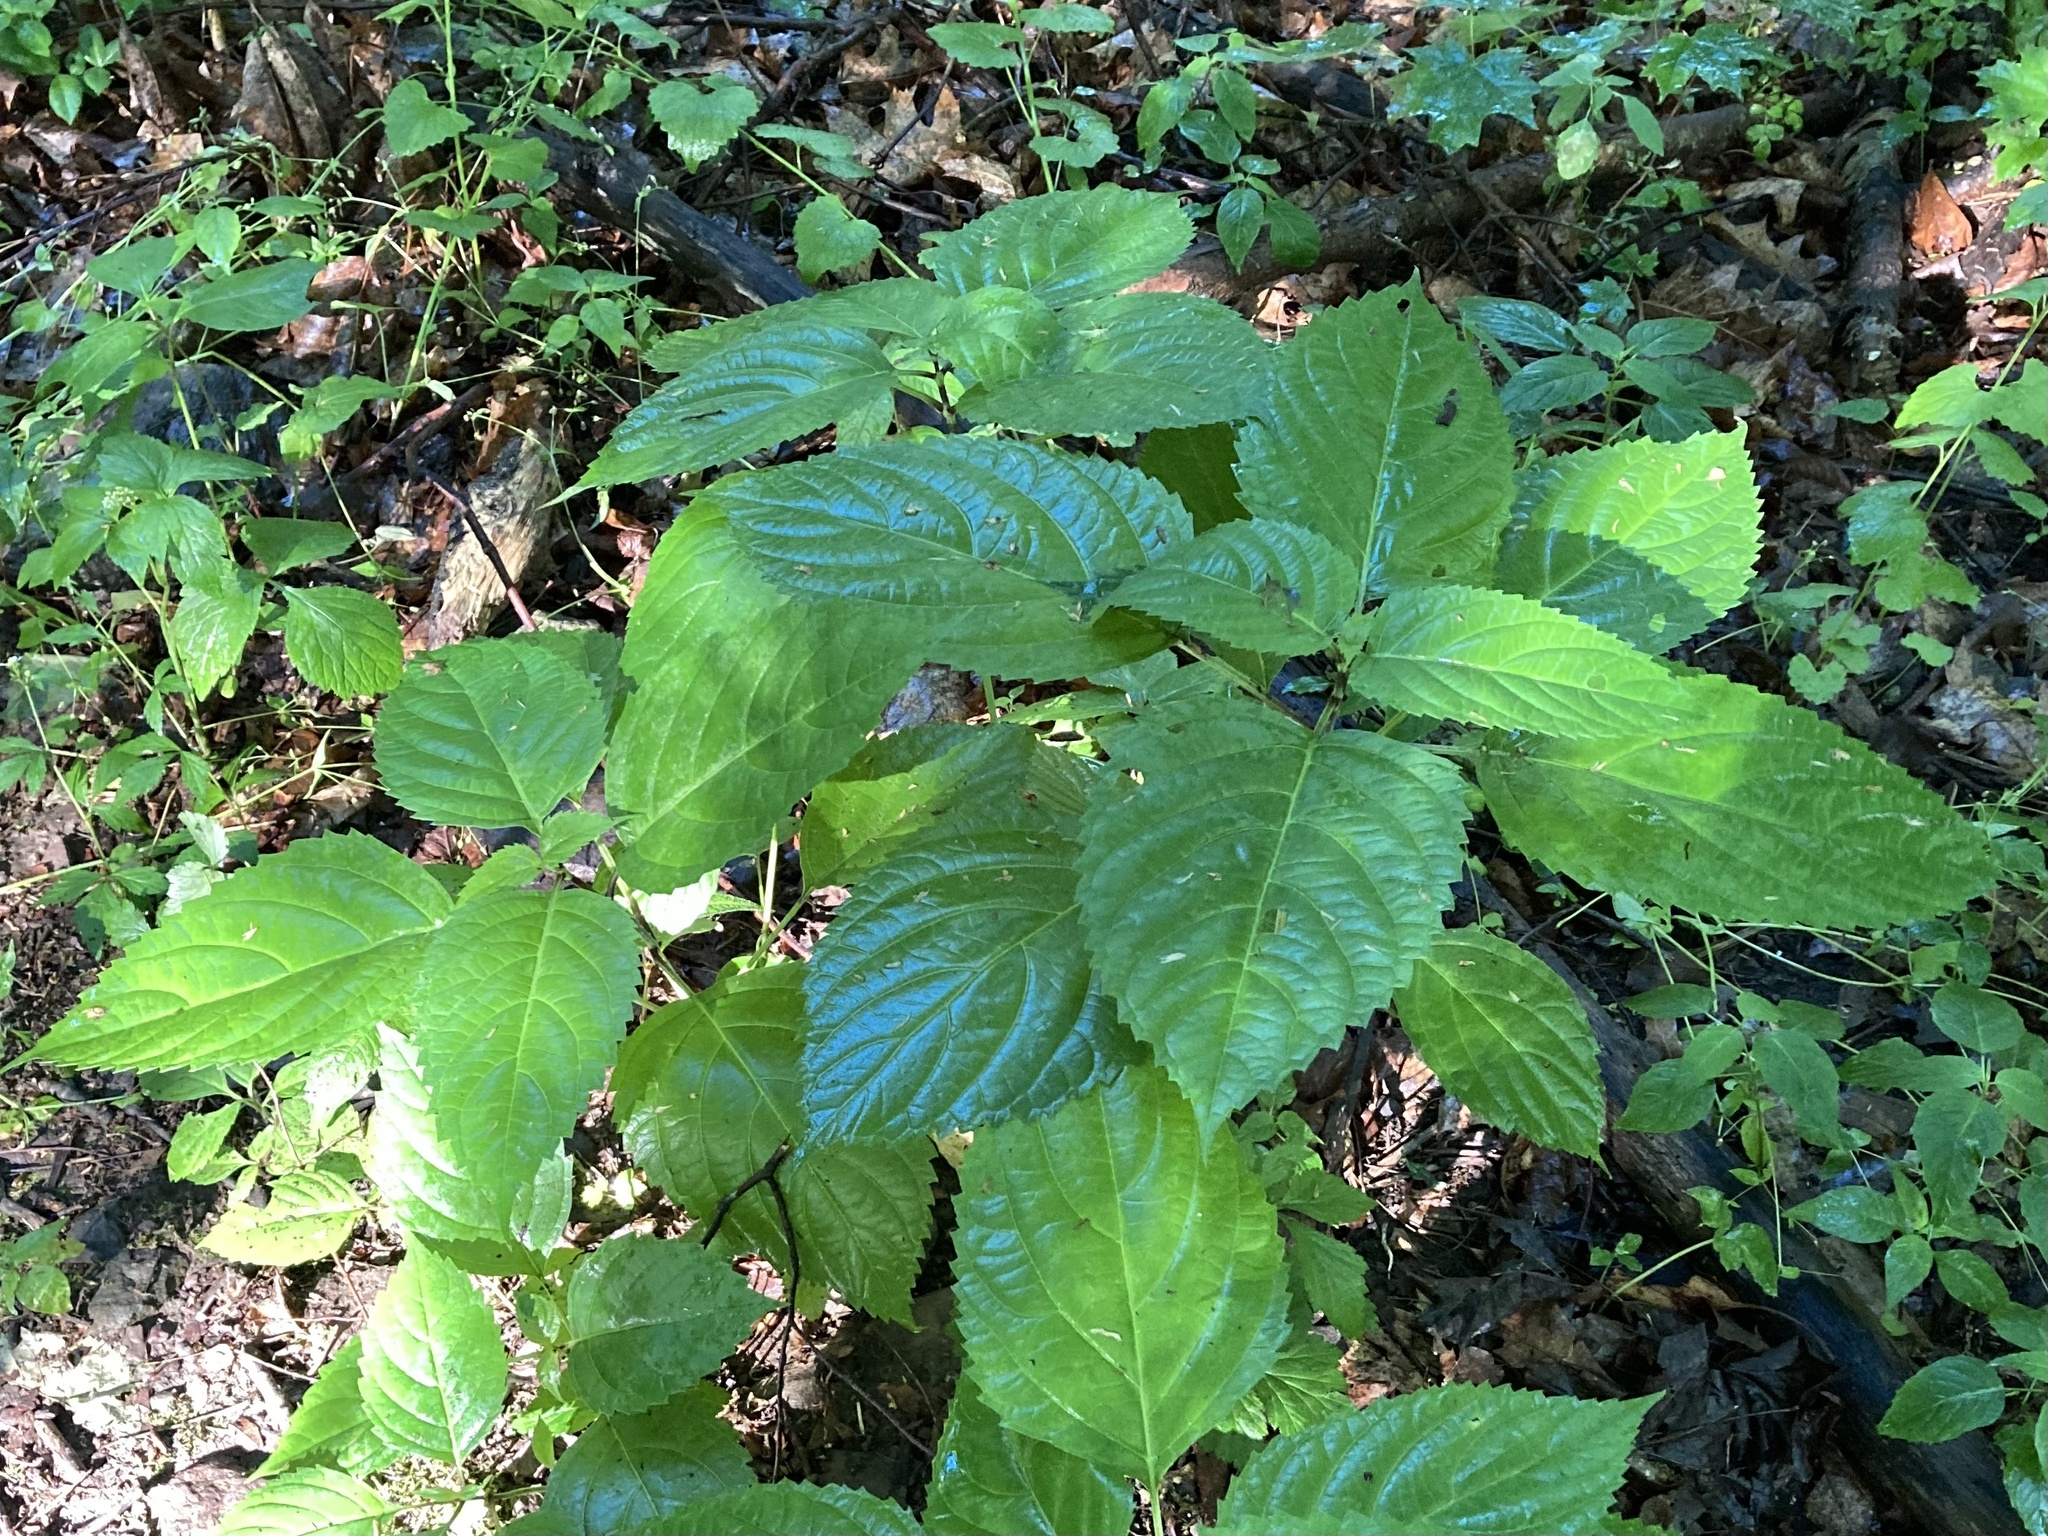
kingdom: Plantae
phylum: Tracheophyta
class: Magnoliopsida
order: Lamiales
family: Lamiaceae
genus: Collinsonia
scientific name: Collinsonia canadensis
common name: Northern horsebalm
